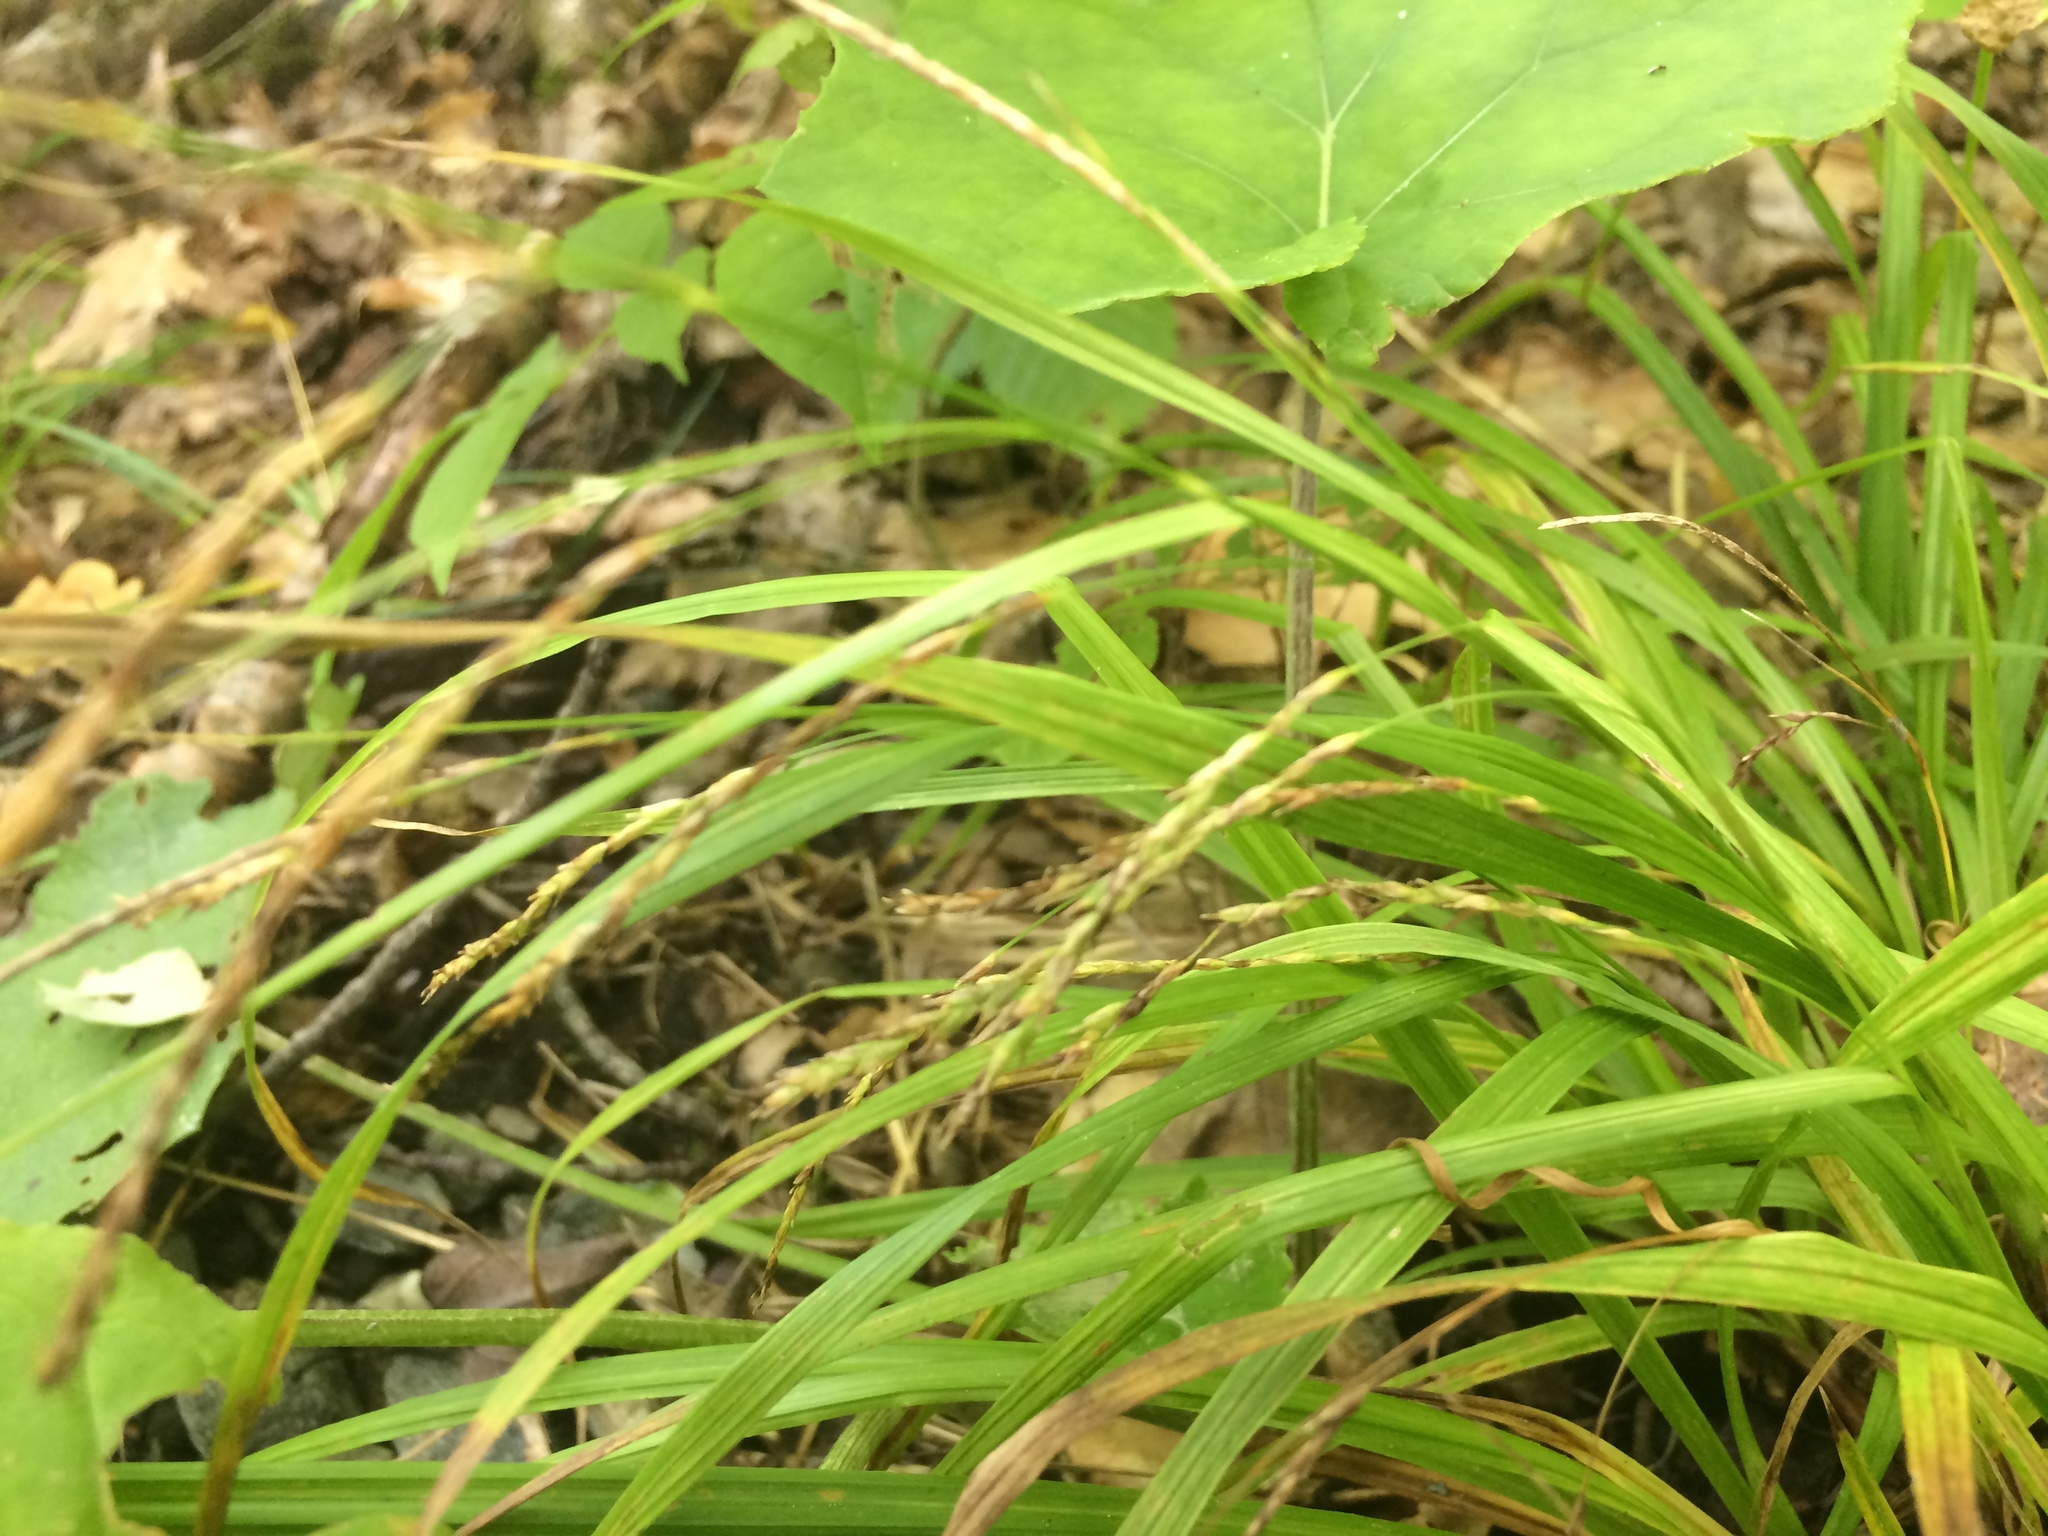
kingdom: Plantae
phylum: Tracheophyta
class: Liliopsida
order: Poales
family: Cyperaceae
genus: Carex
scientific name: Carex debilis
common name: White-edge sedge
